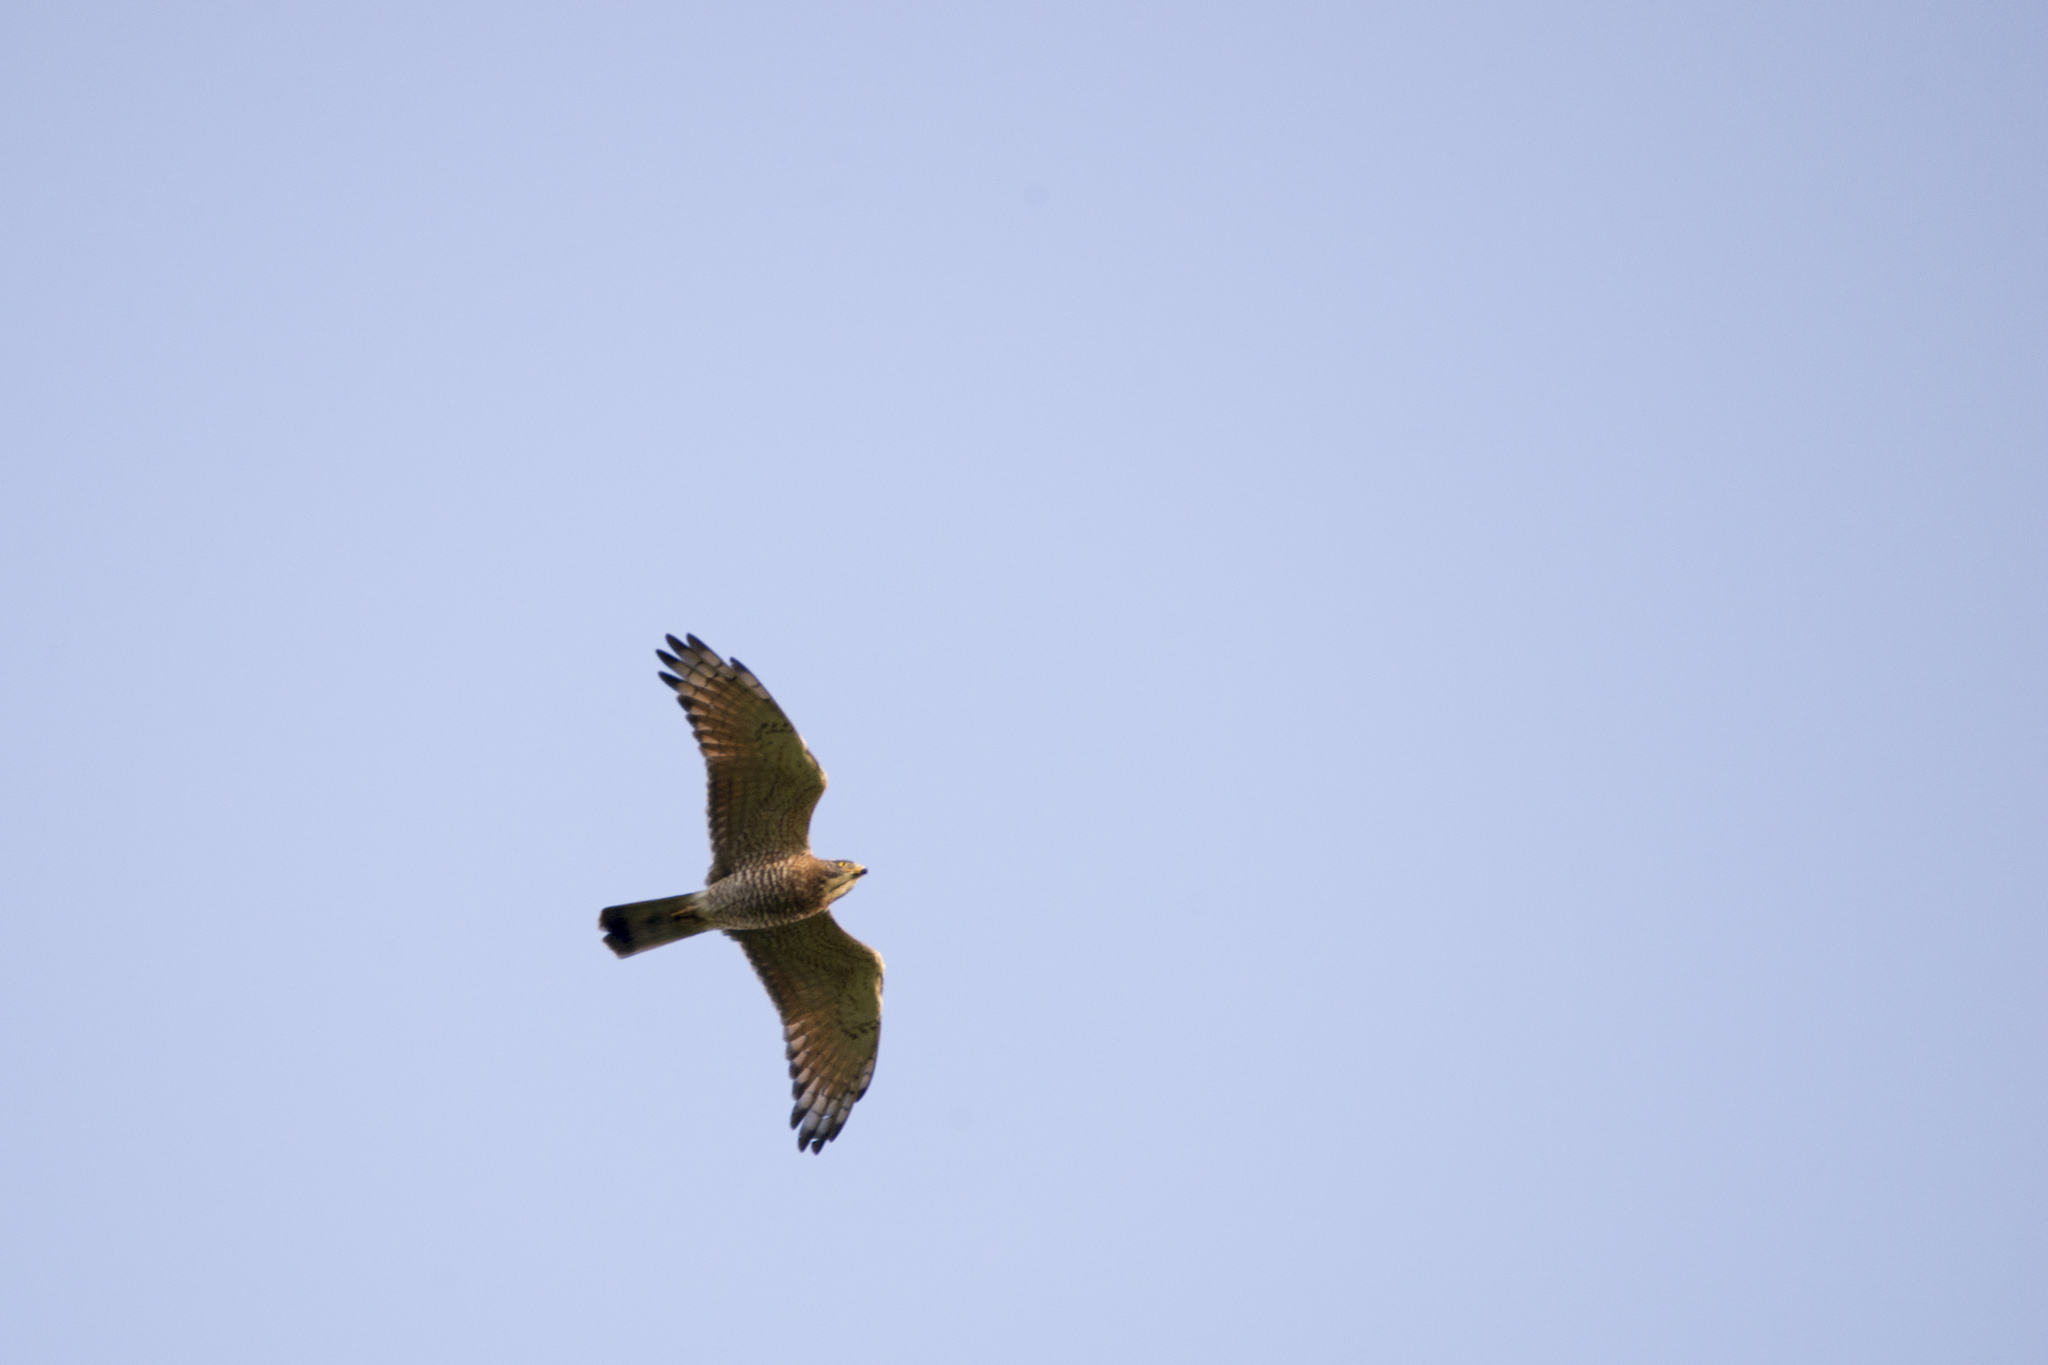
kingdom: Animalia
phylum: Chordata
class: Aves
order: Accipitriformes
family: Accipitridae
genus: Butastur
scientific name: Butastur indicus
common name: Grey-faced buzzard
